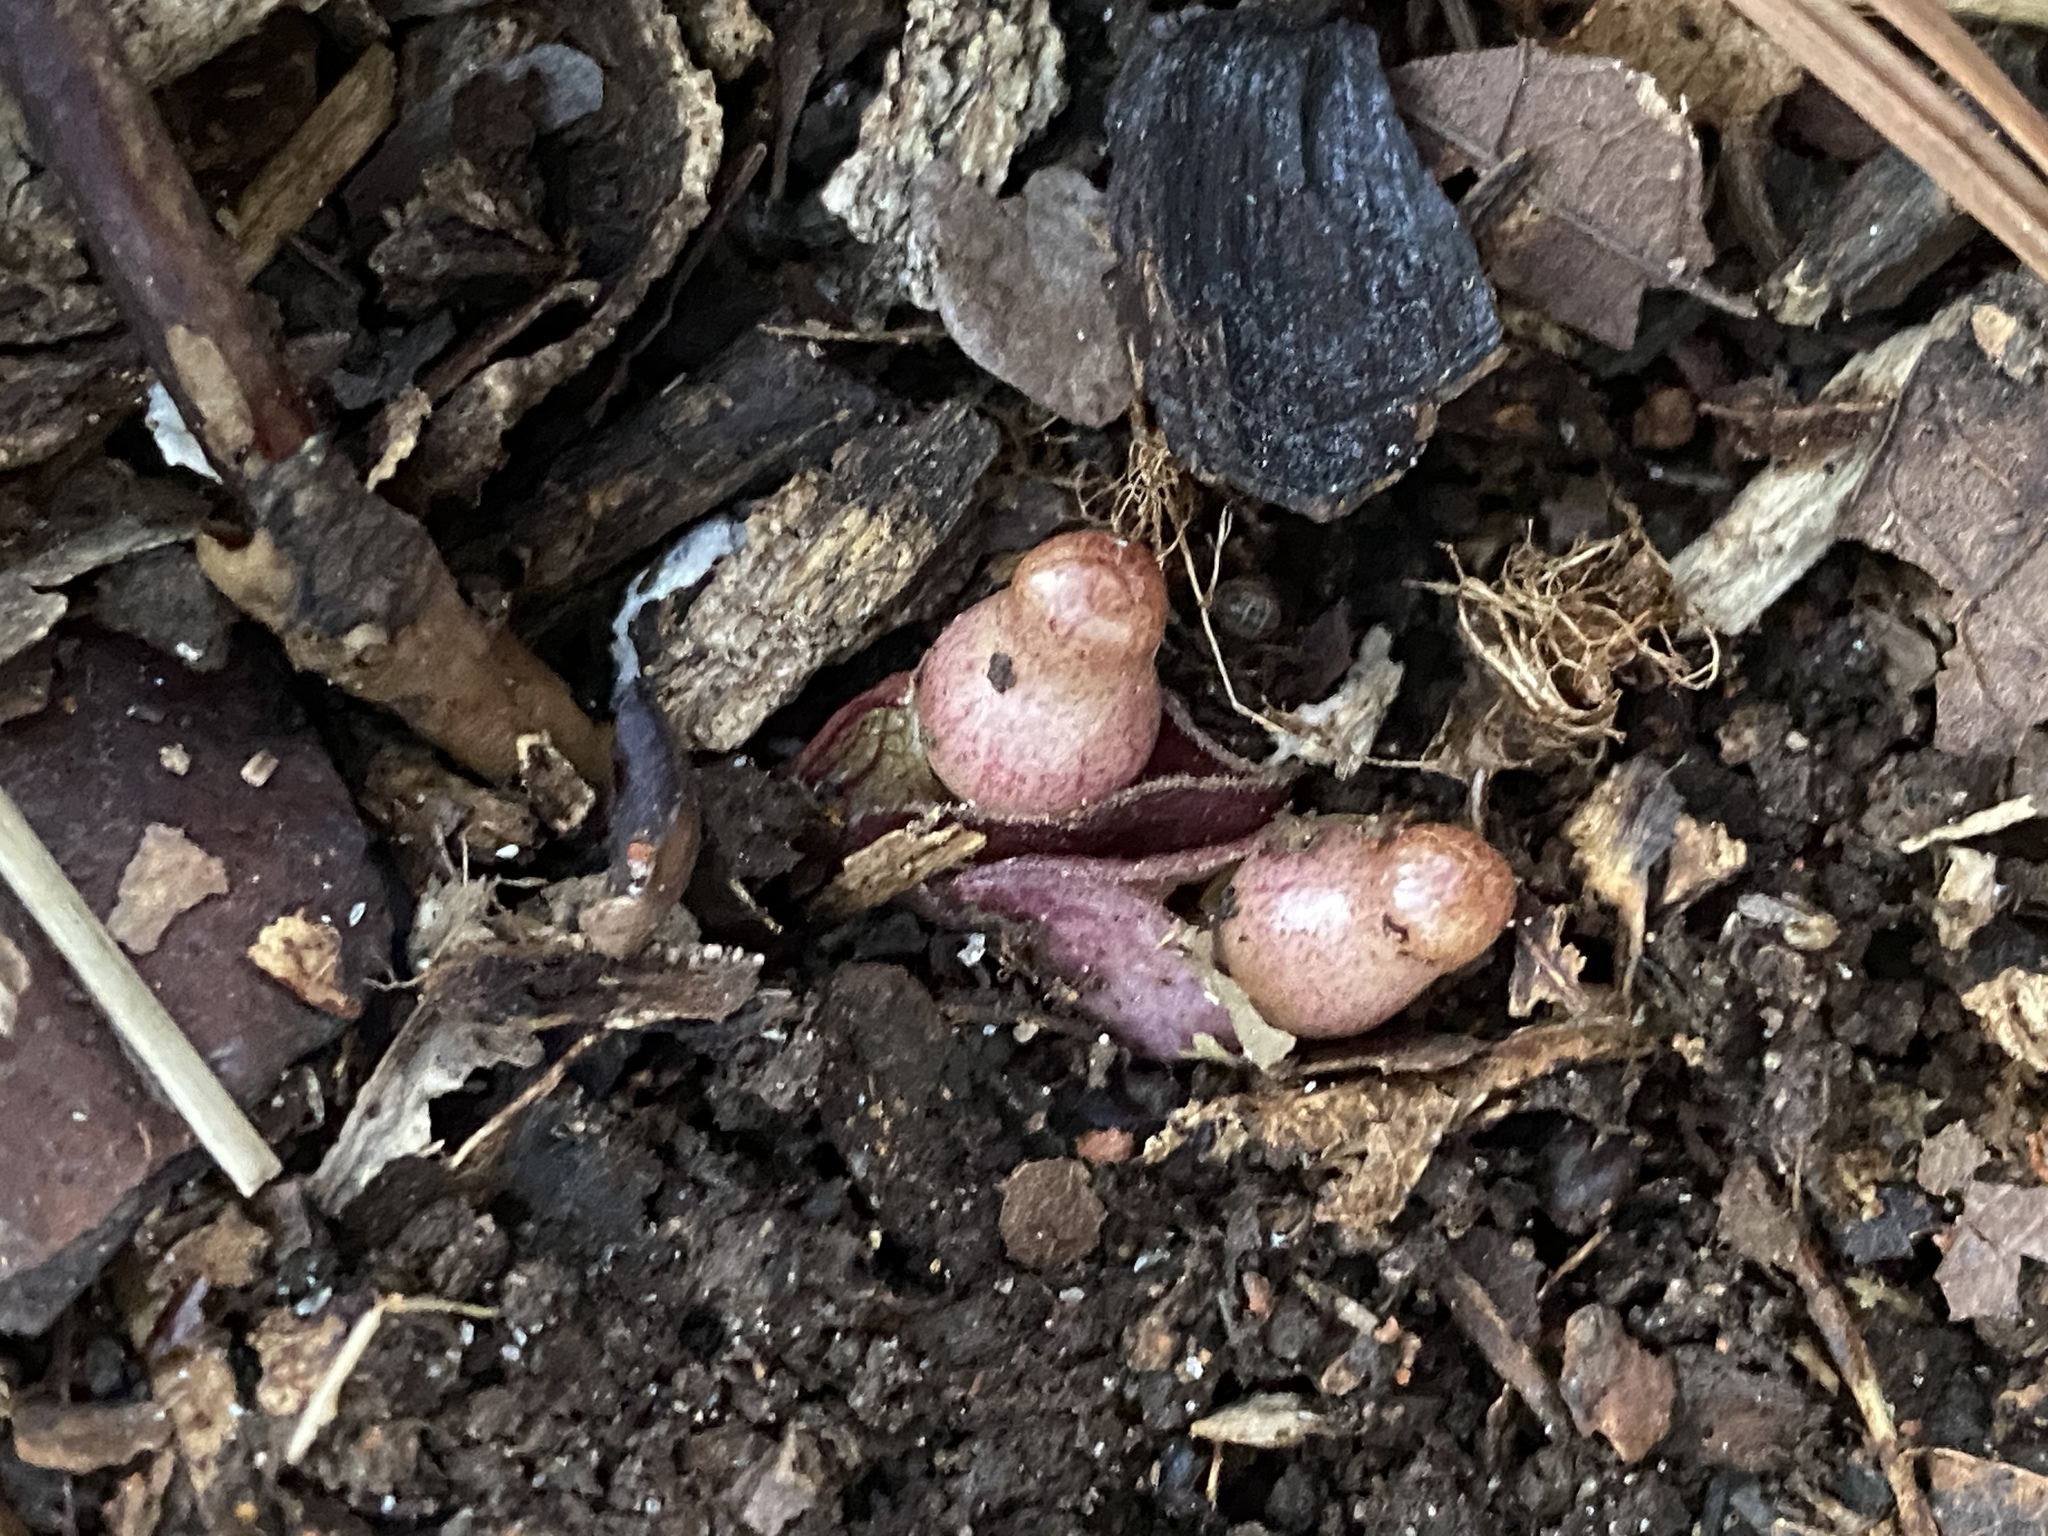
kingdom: Plantae
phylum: Tracheophyta
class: Magnoliopsida
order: Piperales
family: Aristolochiaceae
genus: Hexastylis
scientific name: Hexastylis arifolia
